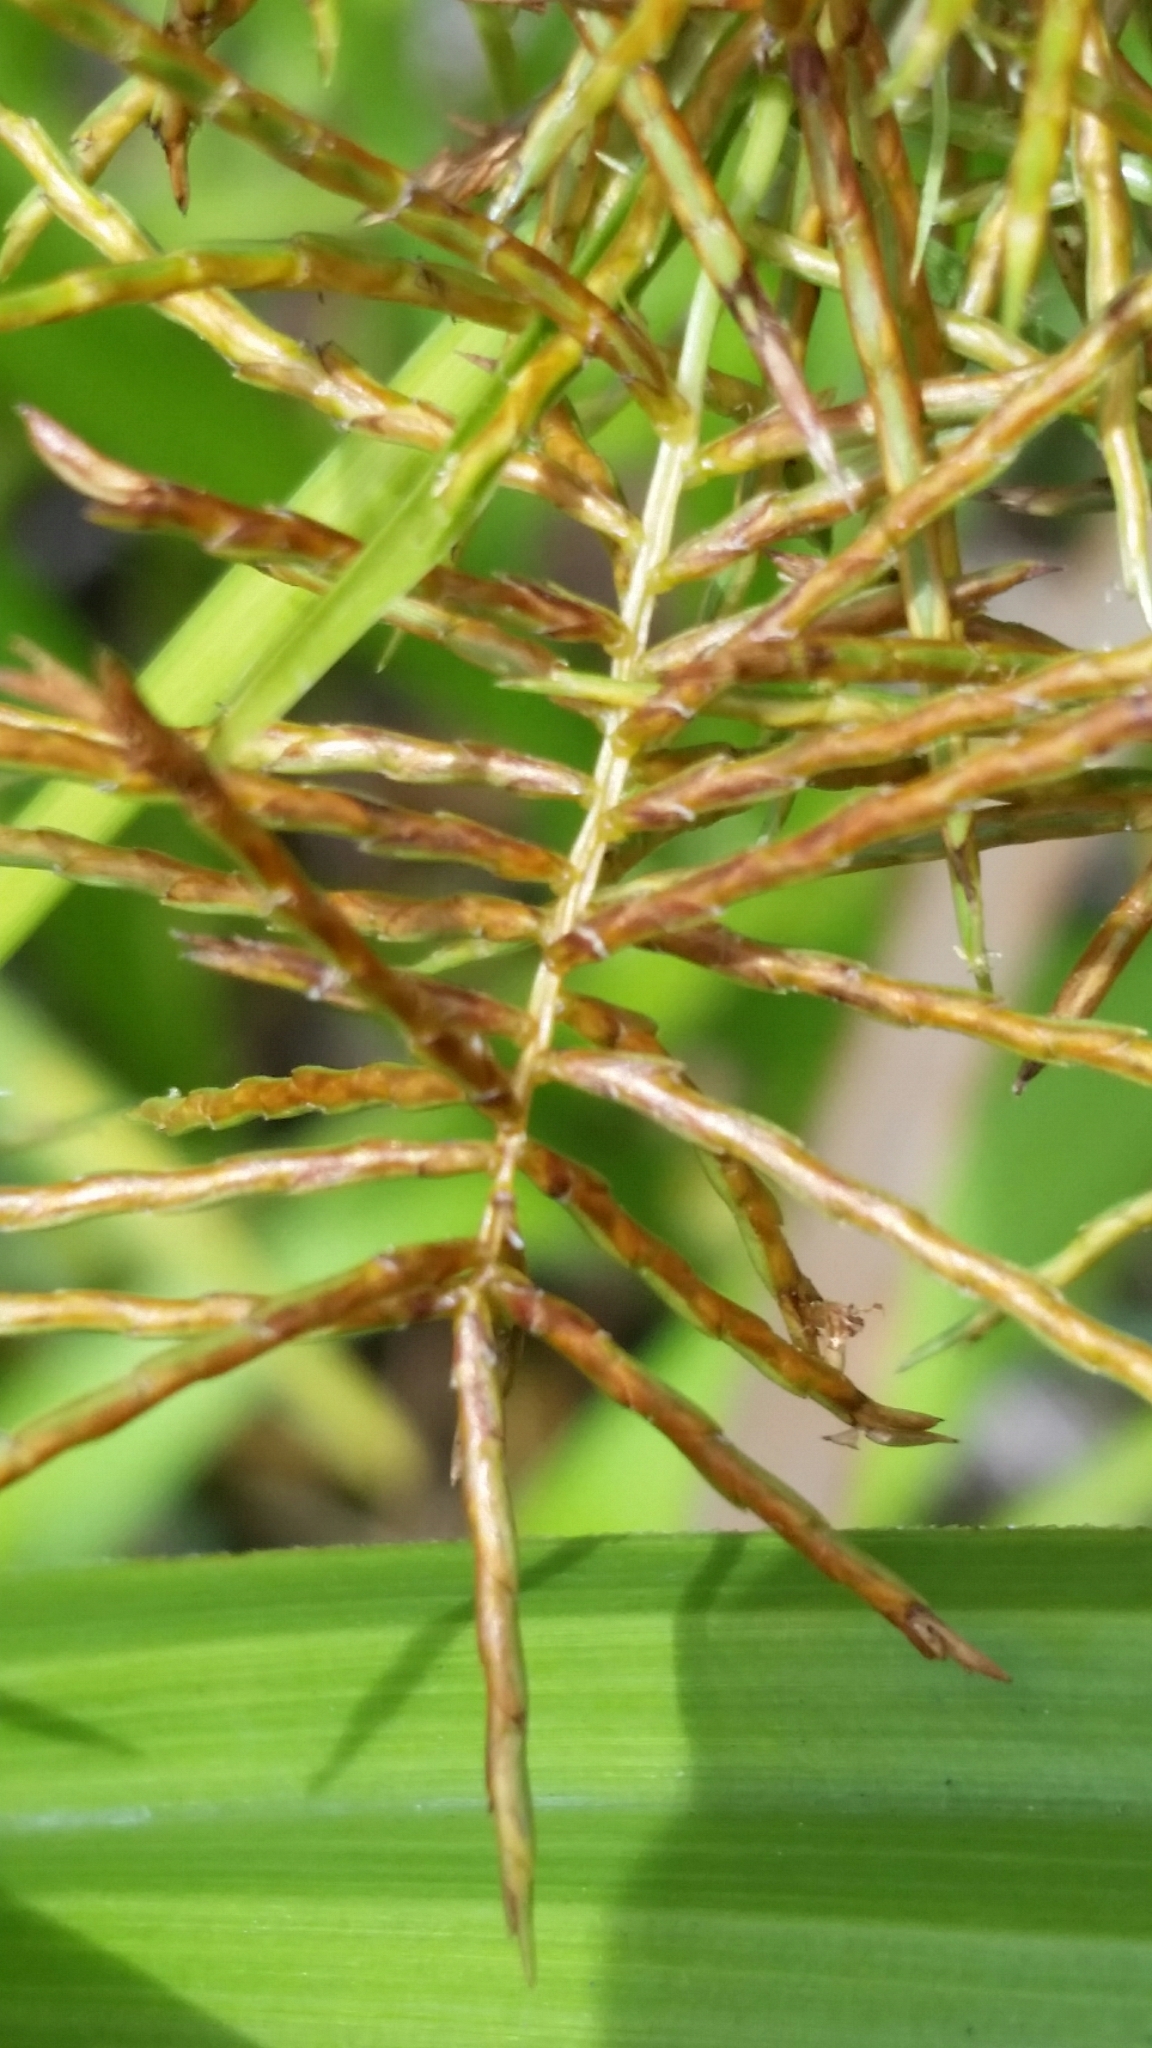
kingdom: Plantae
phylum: Tracheophyta
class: Liliopsida
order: Poales
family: Cyperaceae
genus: Cyperus
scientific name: Cyperus odoratus
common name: Fragrant flatsedge
